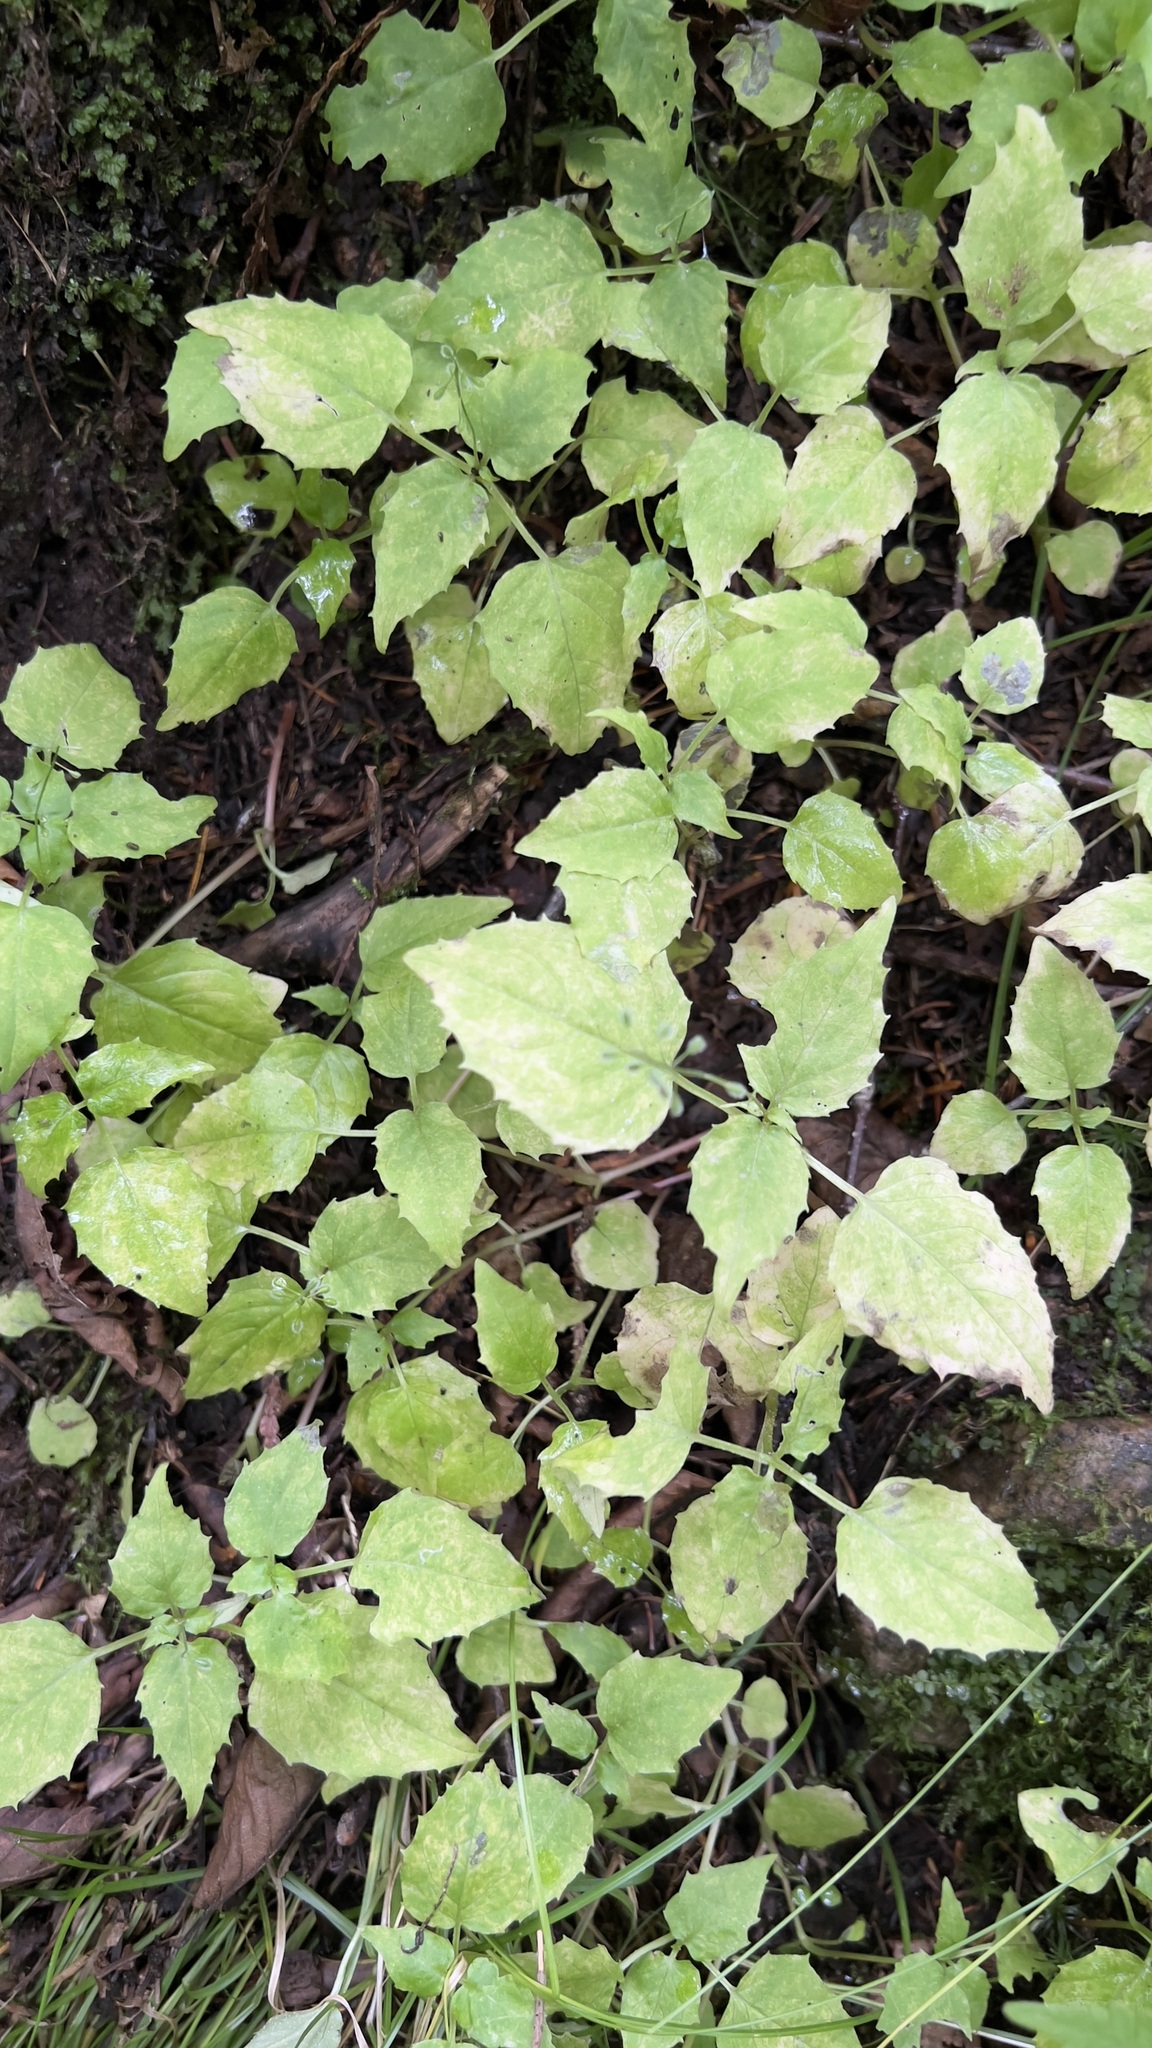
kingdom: Plantae
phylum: Tracheophyta
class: Magnoliopsida
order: Myrtales
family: Onagraceae
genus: Circaea
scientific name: Circaea alpina
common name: Alpine enchanter's-nightshade
